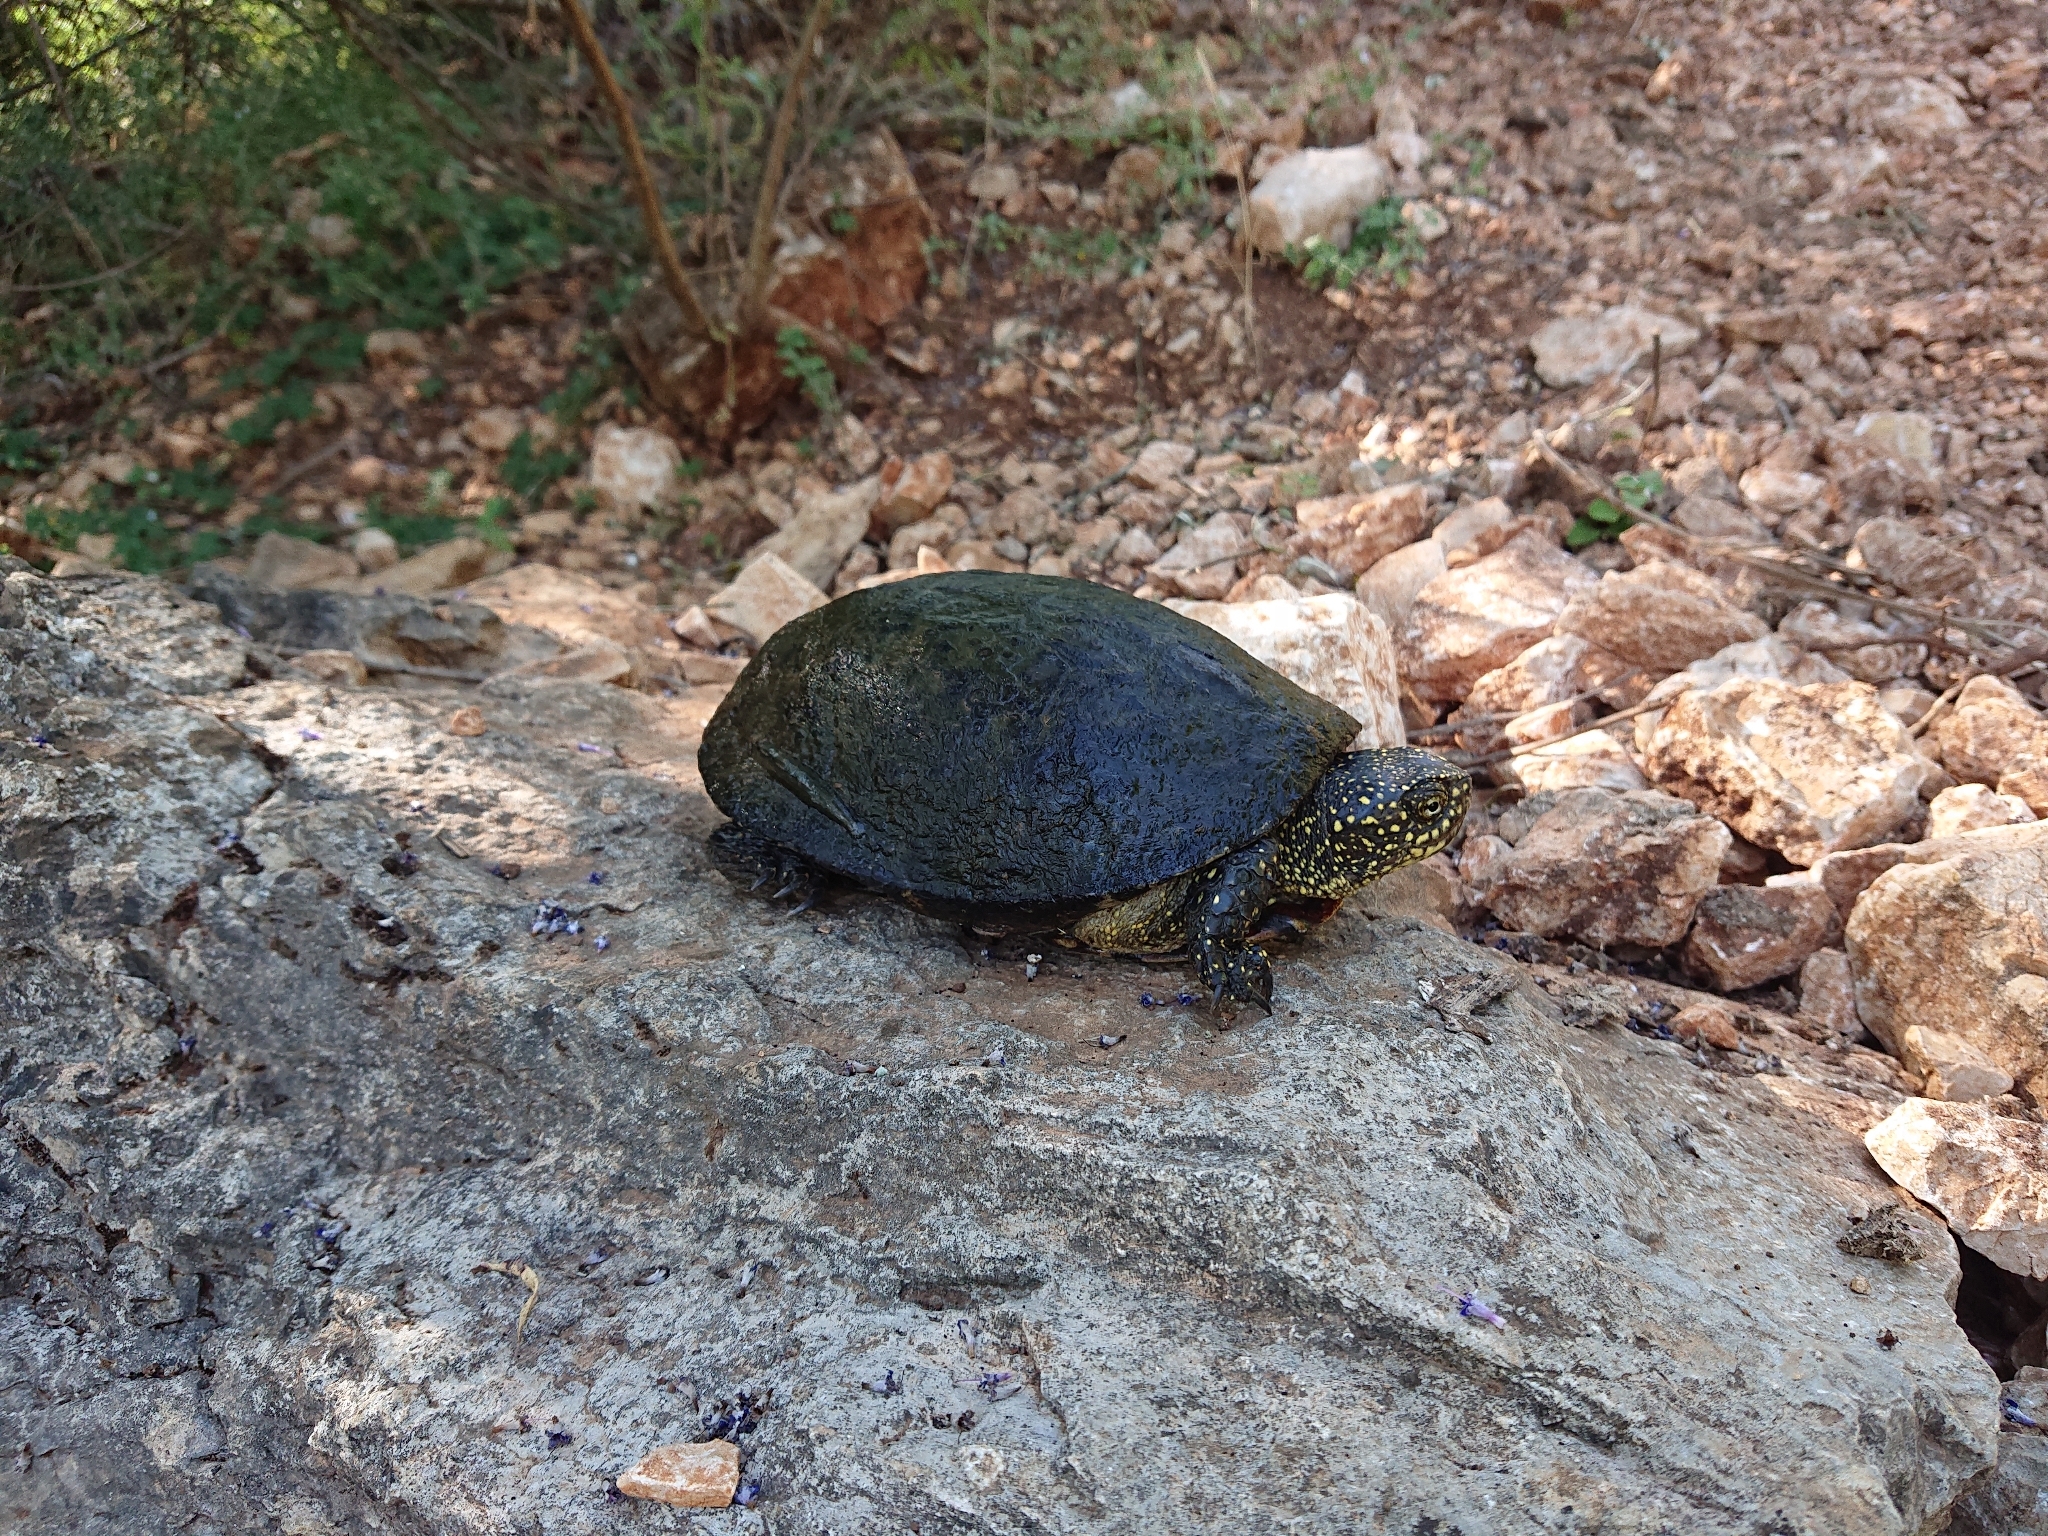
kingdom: Animalia
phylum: Chordata
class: Testudines
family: Emydidae
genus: Emys
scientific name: Emys orbicularis
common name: European pond turtle
